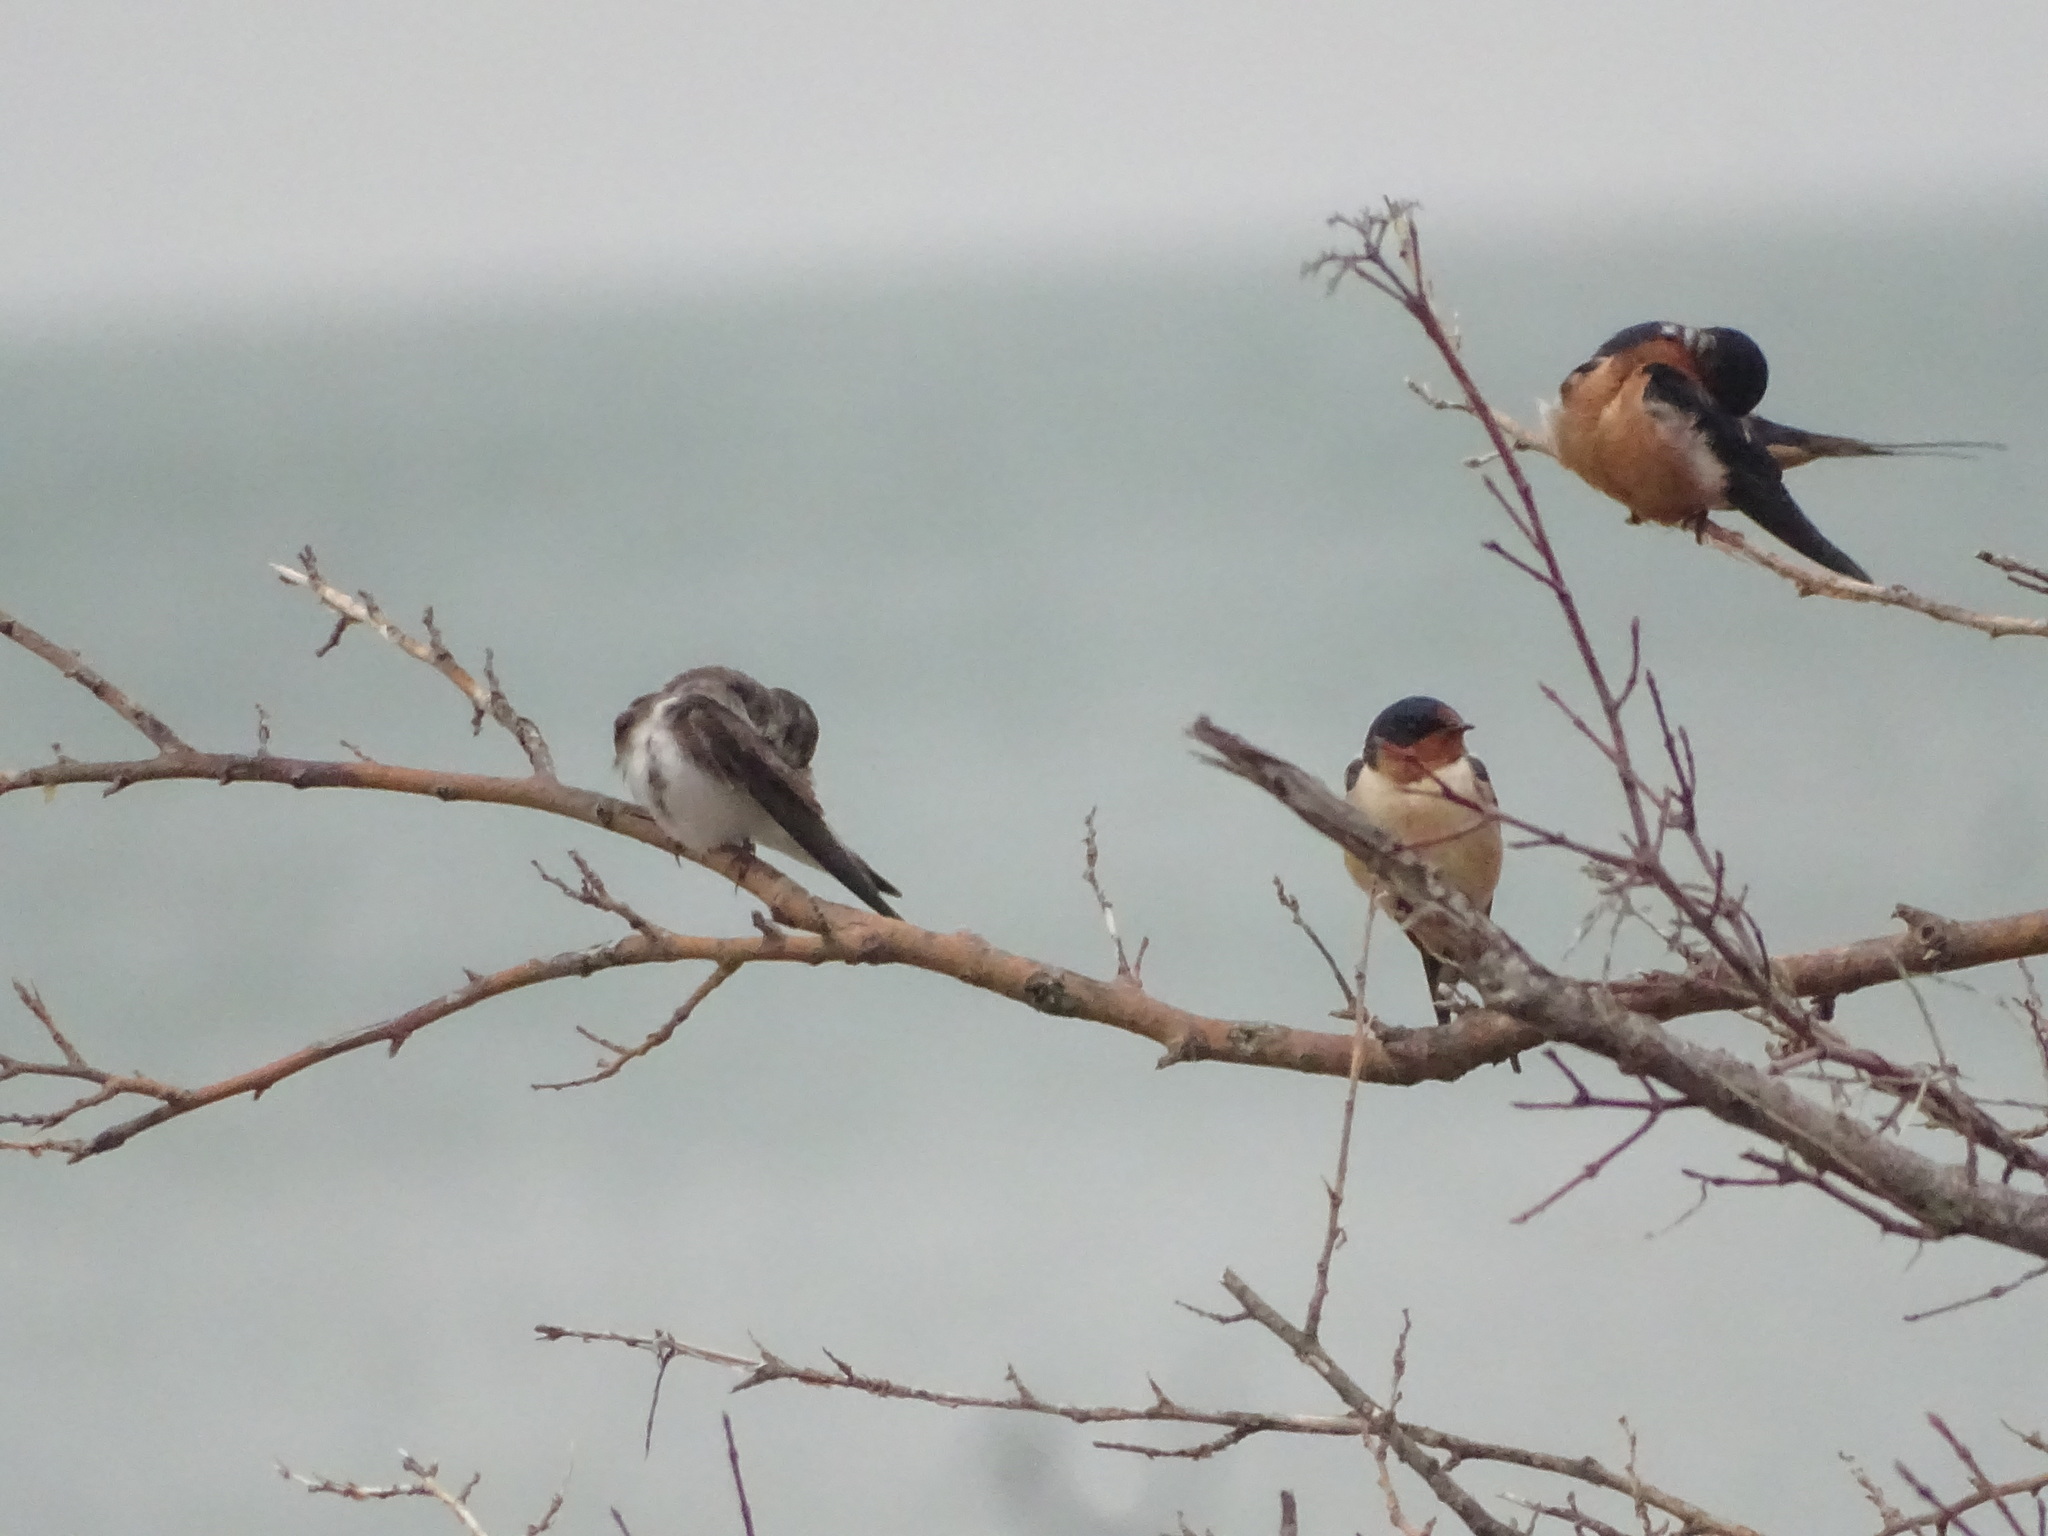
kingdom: Animalia
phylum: Chordata
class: Aves
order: Passeriformes
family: Hirundinidae
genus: Hirundo
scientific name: Hirundo rustica
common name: Barn swallow
